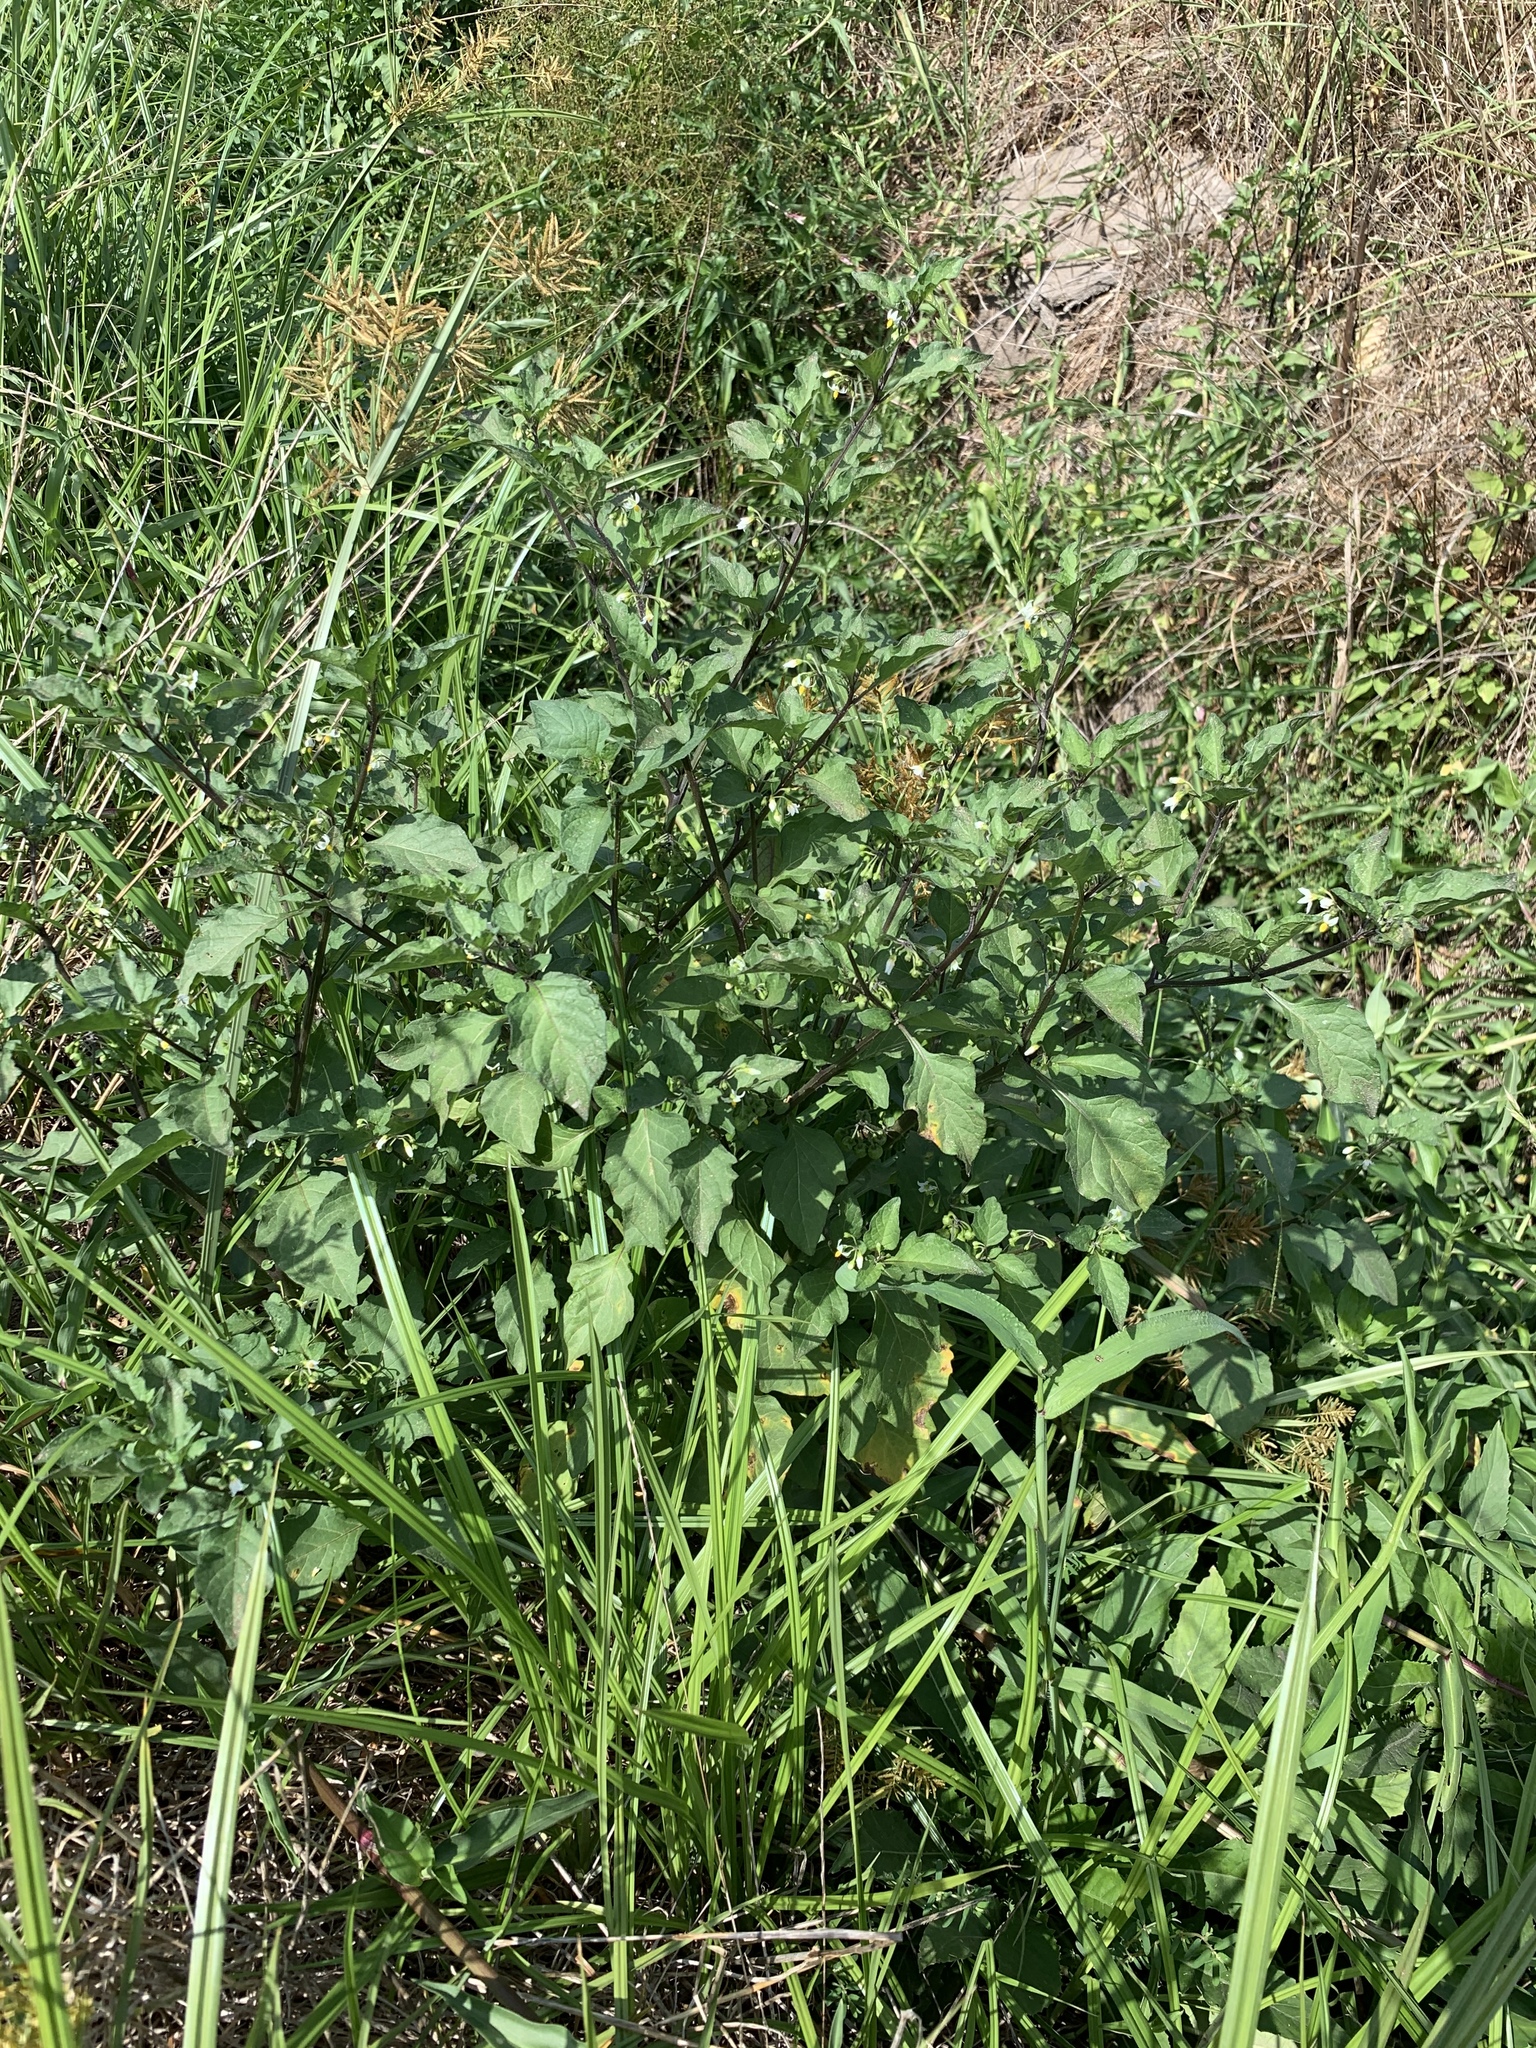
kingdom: Plantae
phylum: Tracheophyta
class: Magnoliopsida
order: Solanales
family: Solanaceae
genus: Solanum
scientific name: Solanum nigrum
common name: Black nightshade
